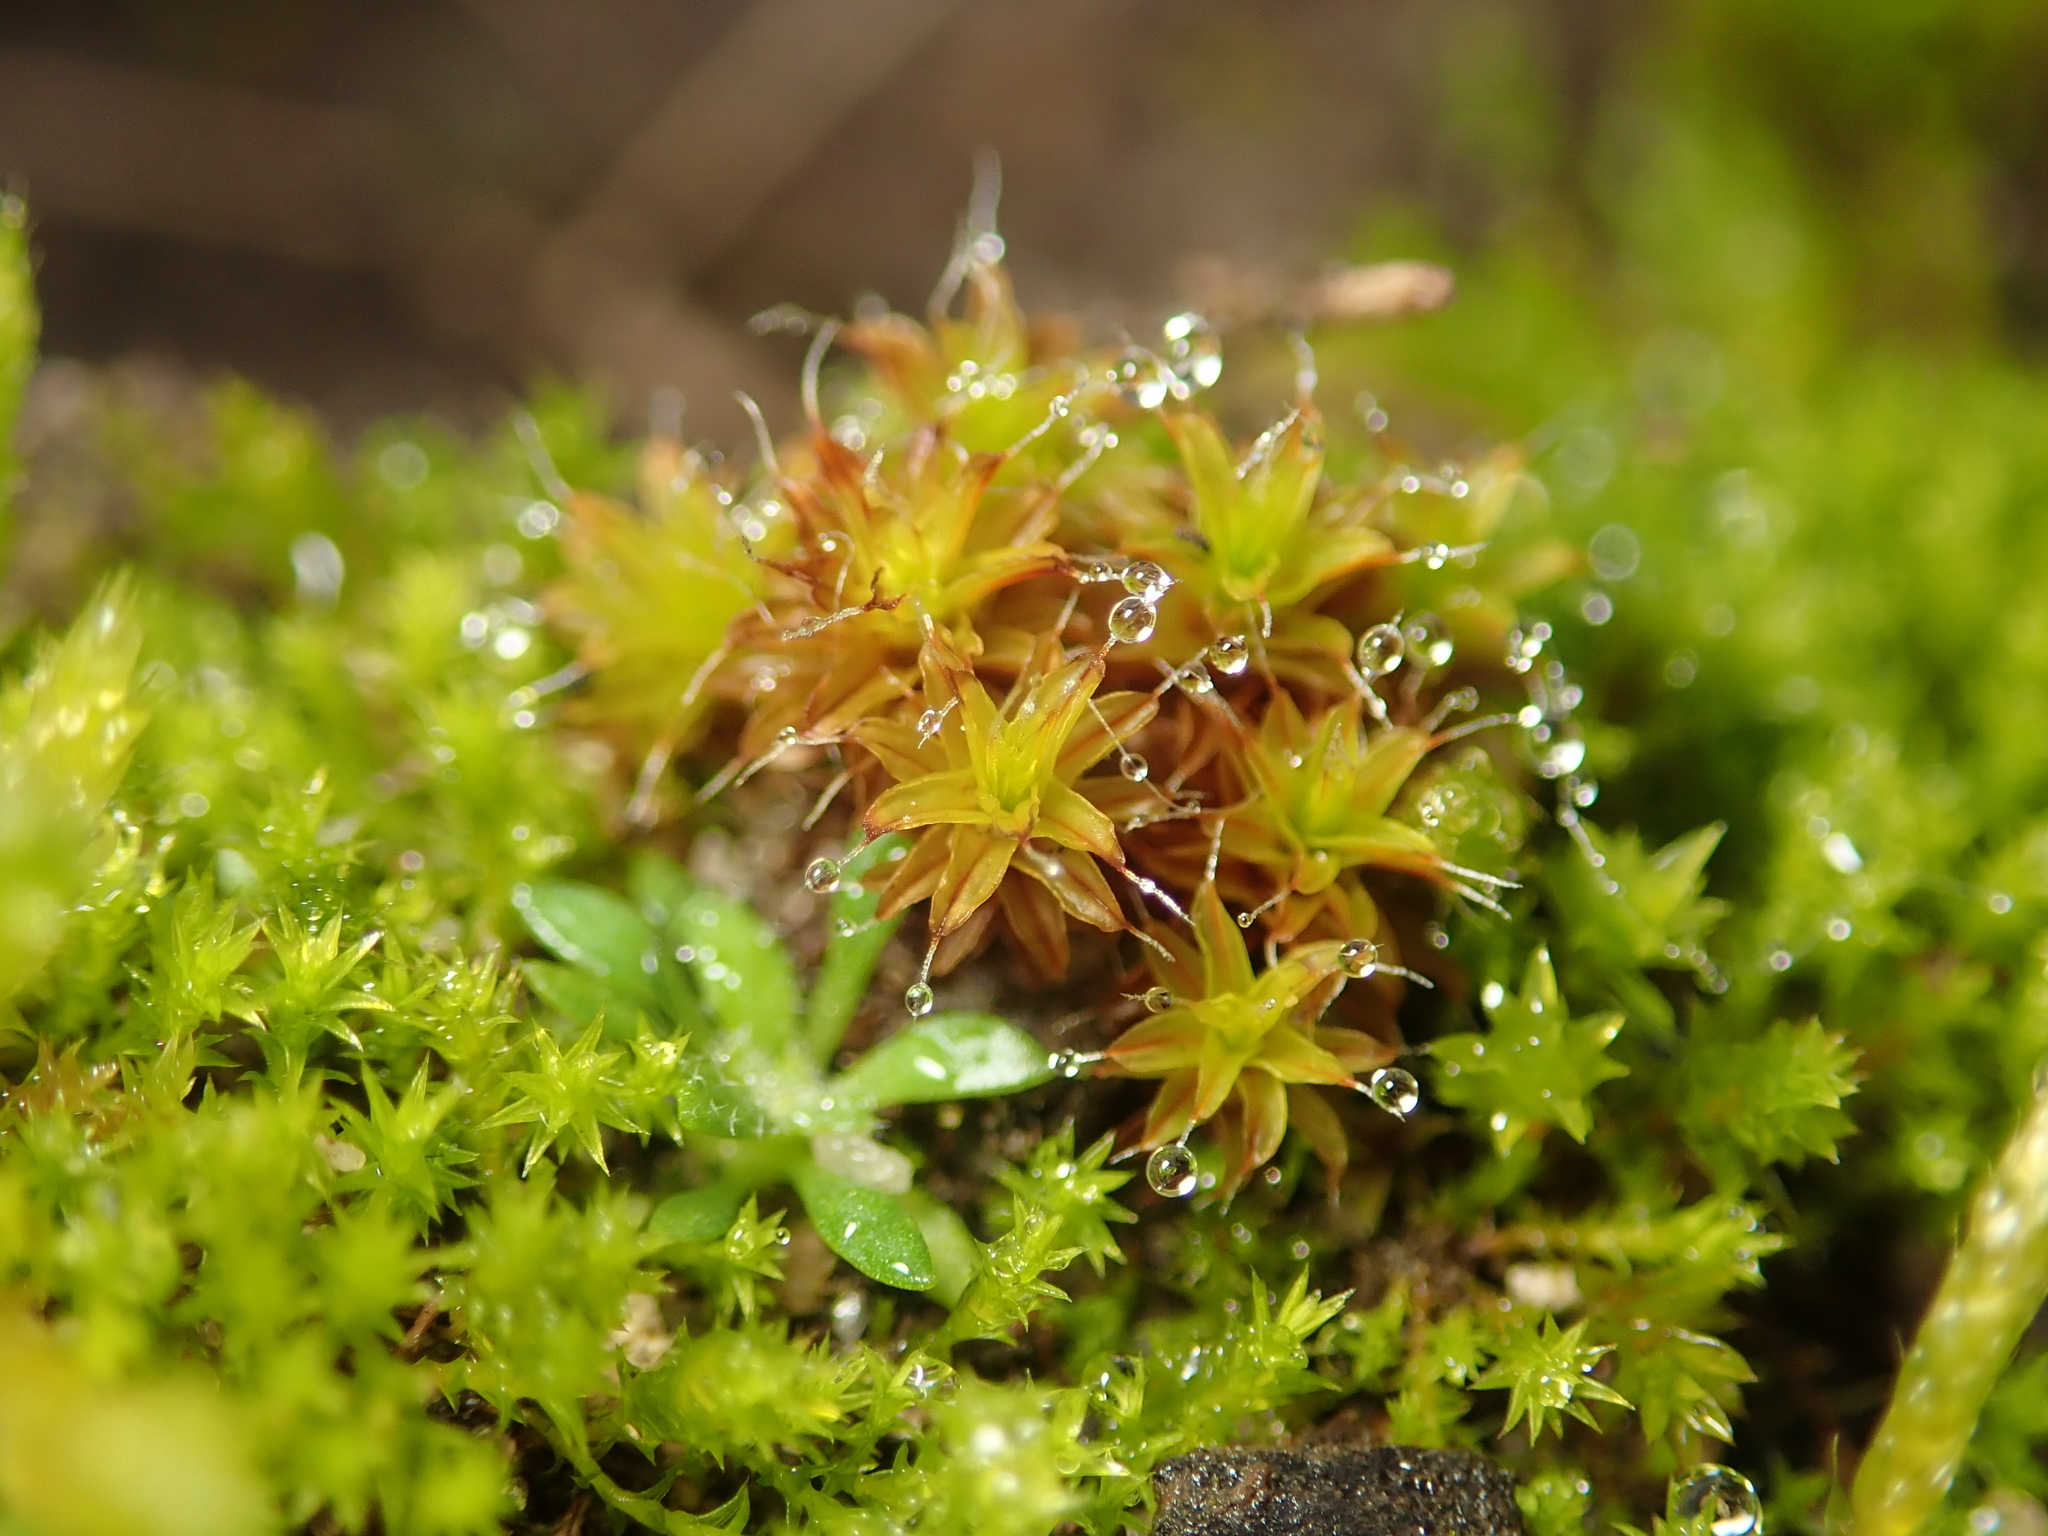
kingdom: Plantae
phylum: Bryophyta
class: Bryopsida
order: Pottiales
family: Pottiaceae
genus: Syntrichia
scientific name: Syntrichia ruralis
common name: Sidewalk screw moss
